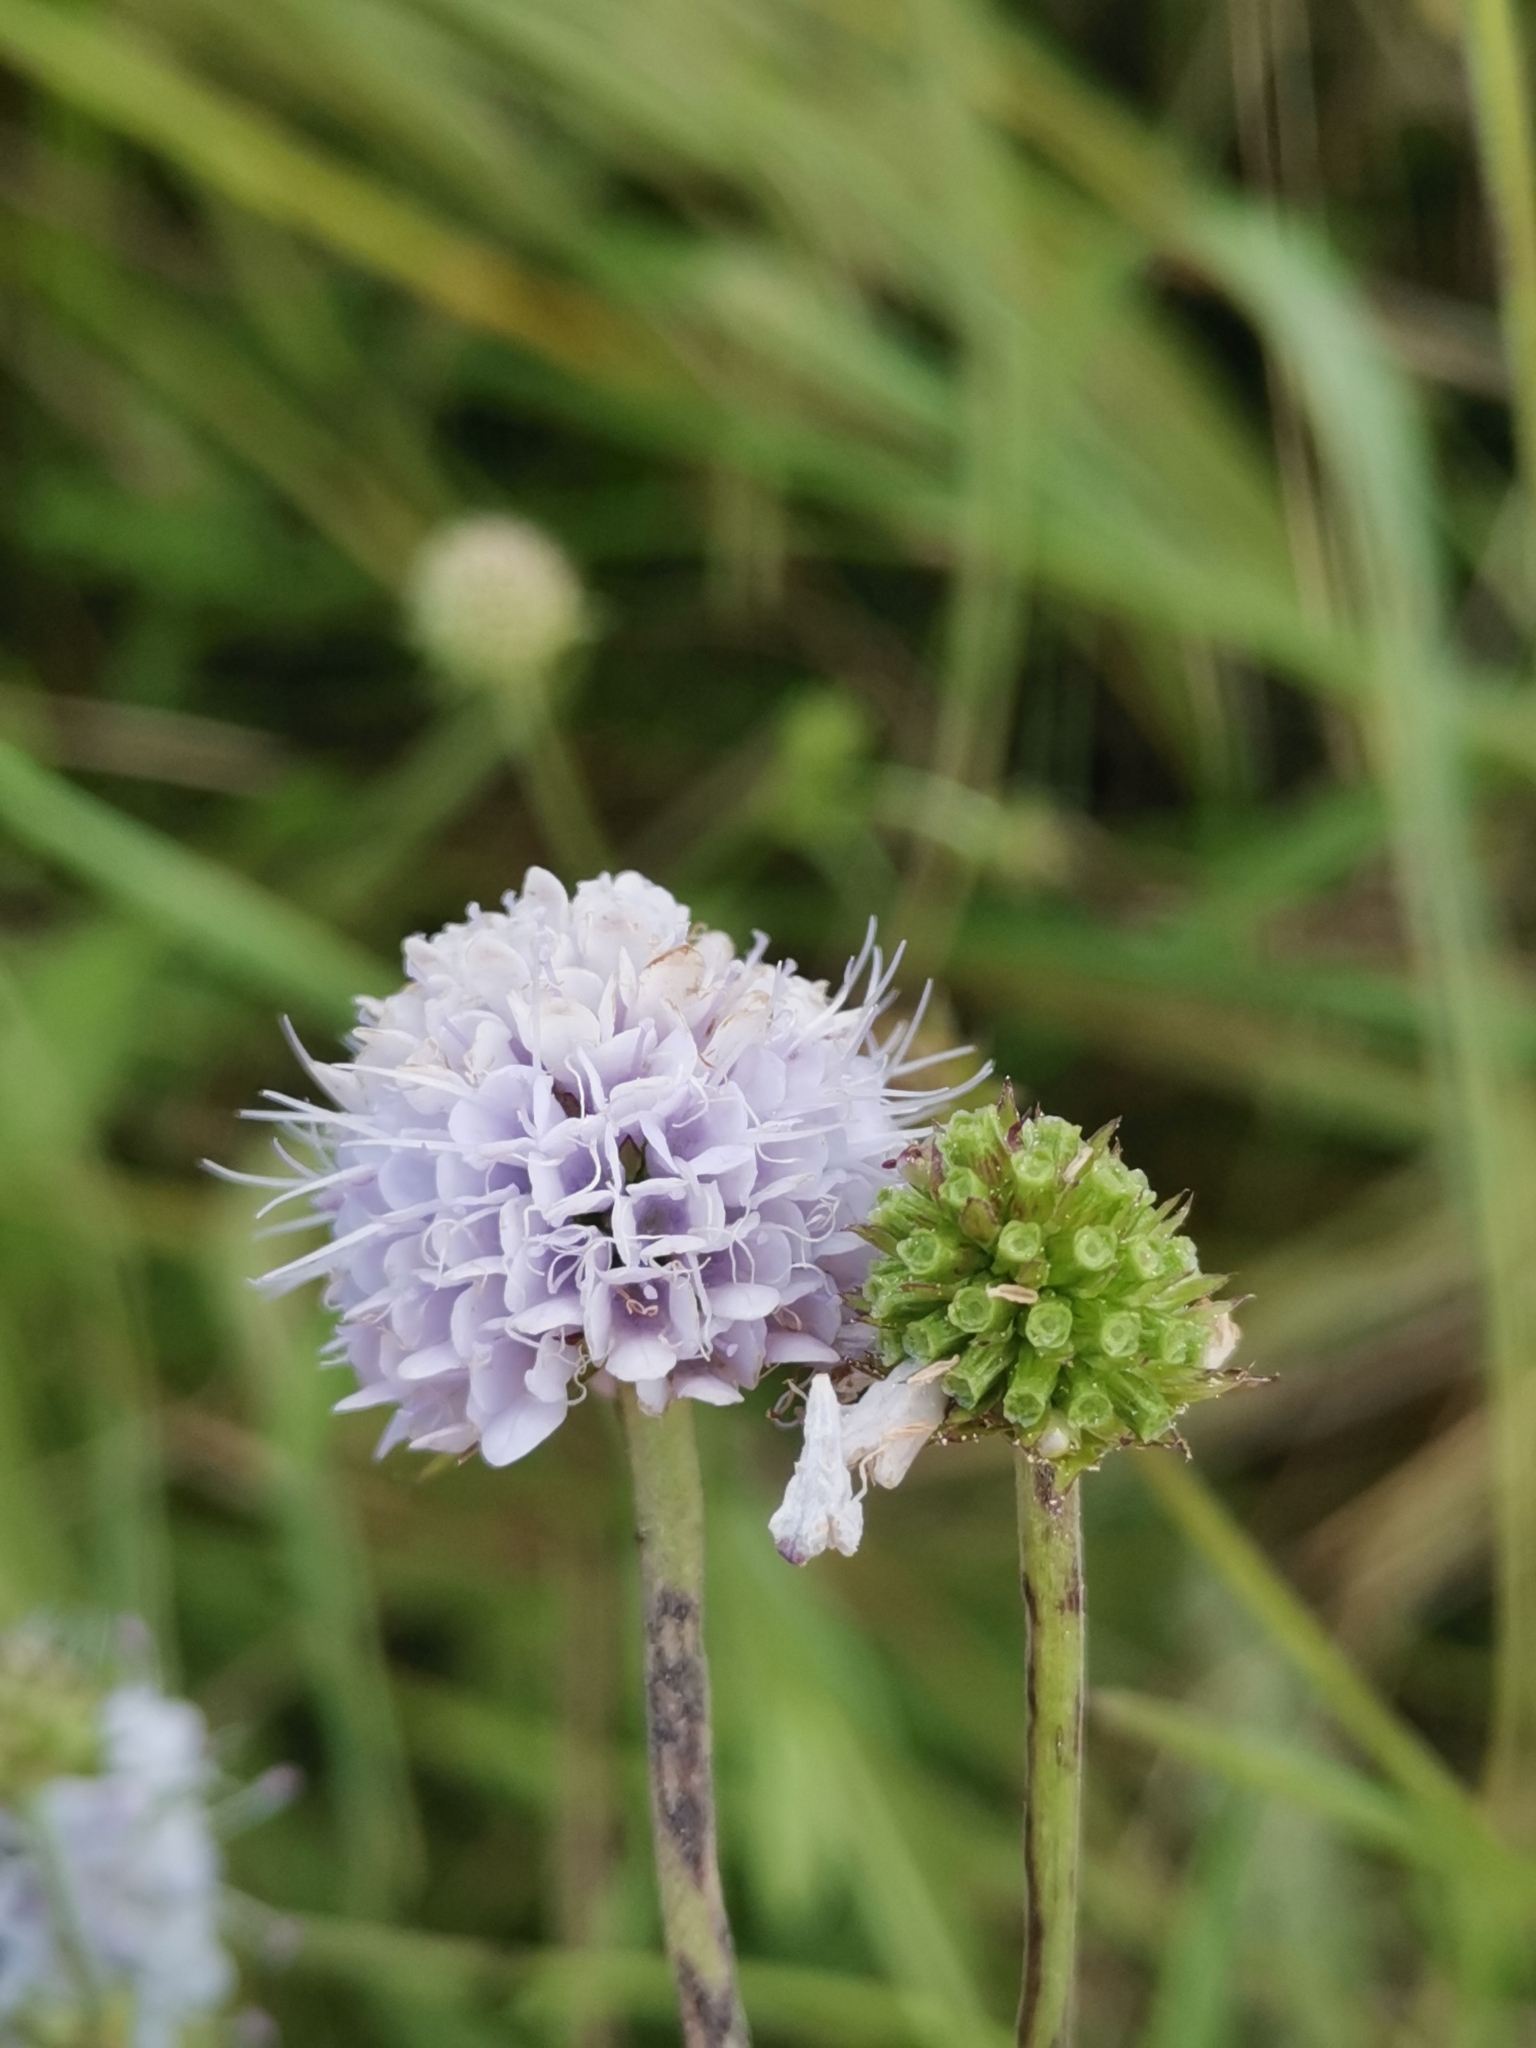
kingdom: Plantae
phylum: Tracheophyta
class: Magnoliopsida
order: Dipsacales
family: Caprifoliaceae
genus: Succisella
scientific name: Succisella inflexa
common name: Southern succisella
